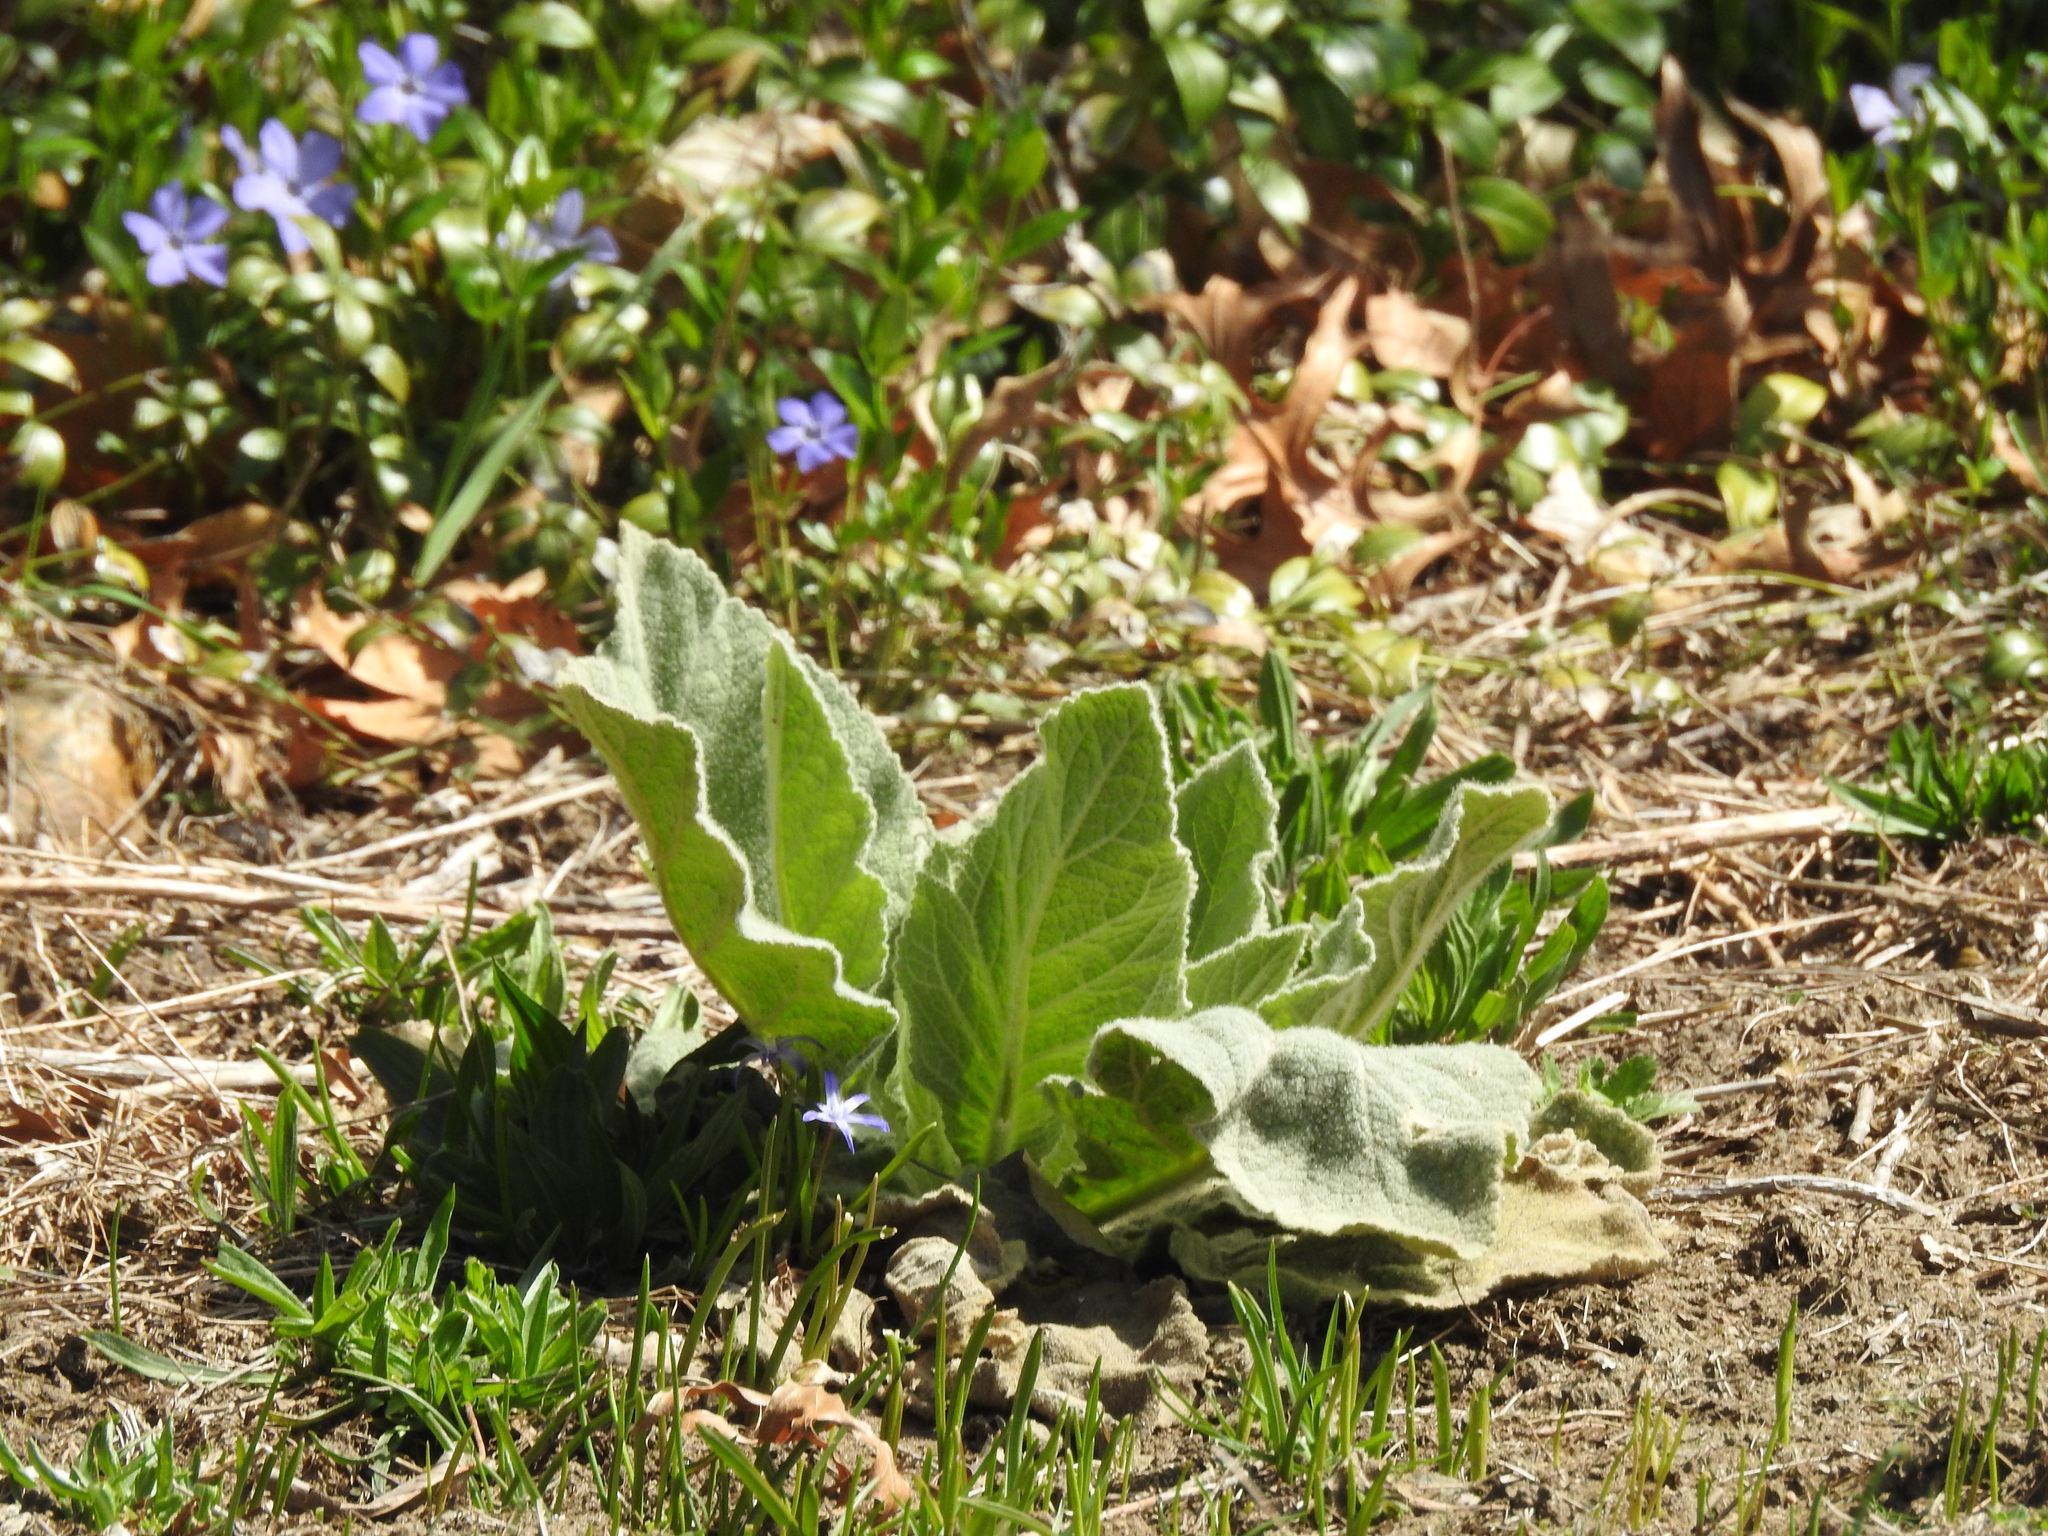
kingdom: Plantae
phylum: Tracheophyta
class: Magnoliopsida
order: Lamiales
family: Scrophulariaceae
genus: Verbascum
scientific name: Verbascum thapsus
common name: Common mullein
